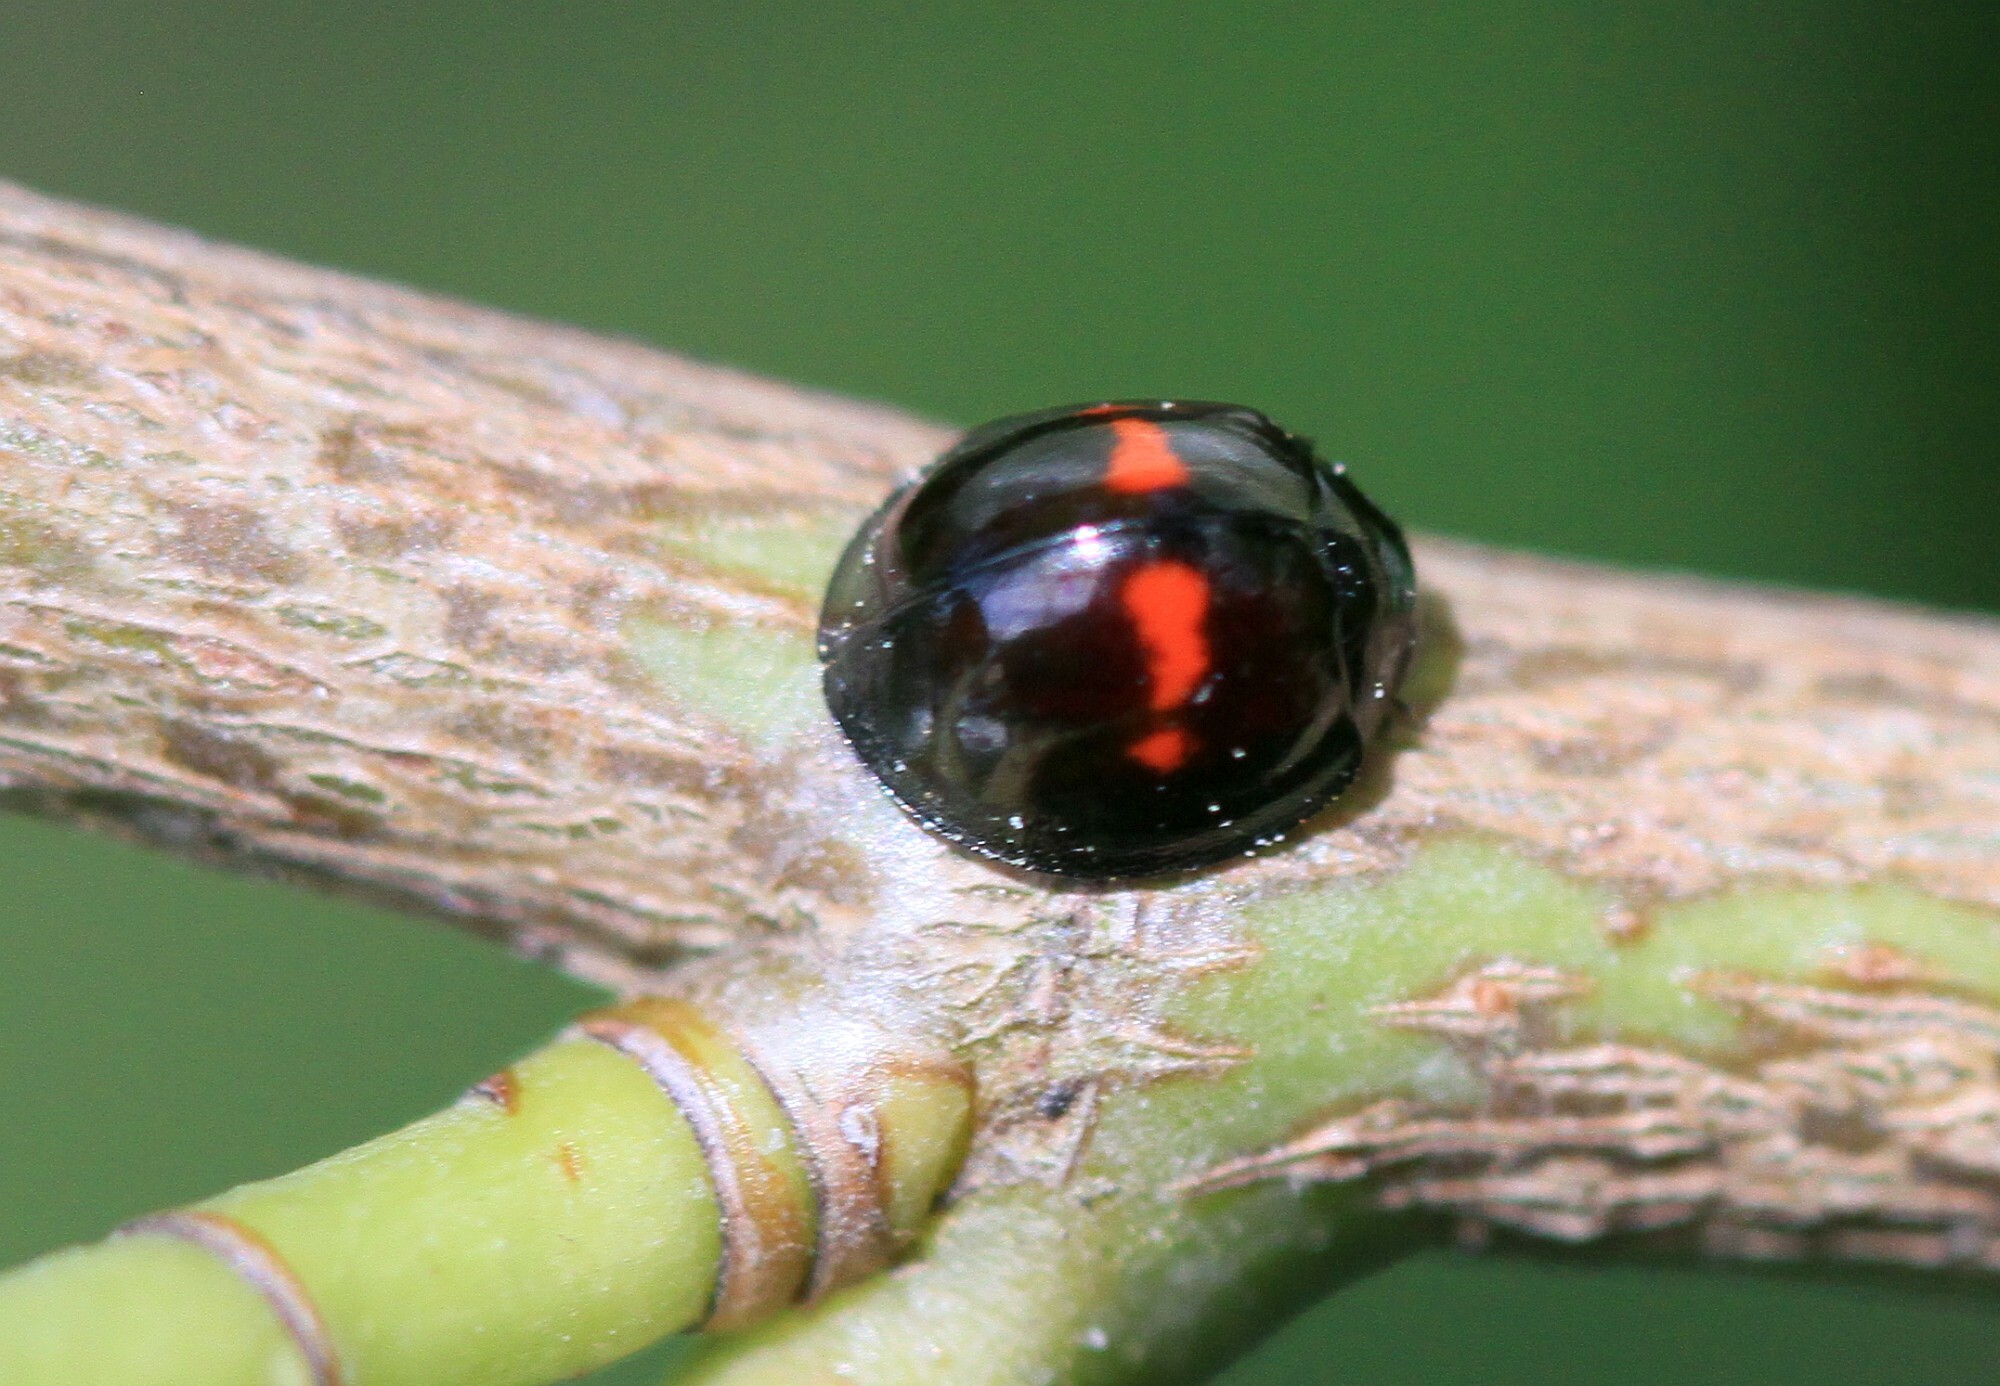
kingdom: Animalia
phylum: Arthropoda
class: Insecta
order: Coleoptera
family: Coccinellidae
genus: Chilocorus
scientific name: Chilocorus bipustulatus
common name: Heather ladybird
